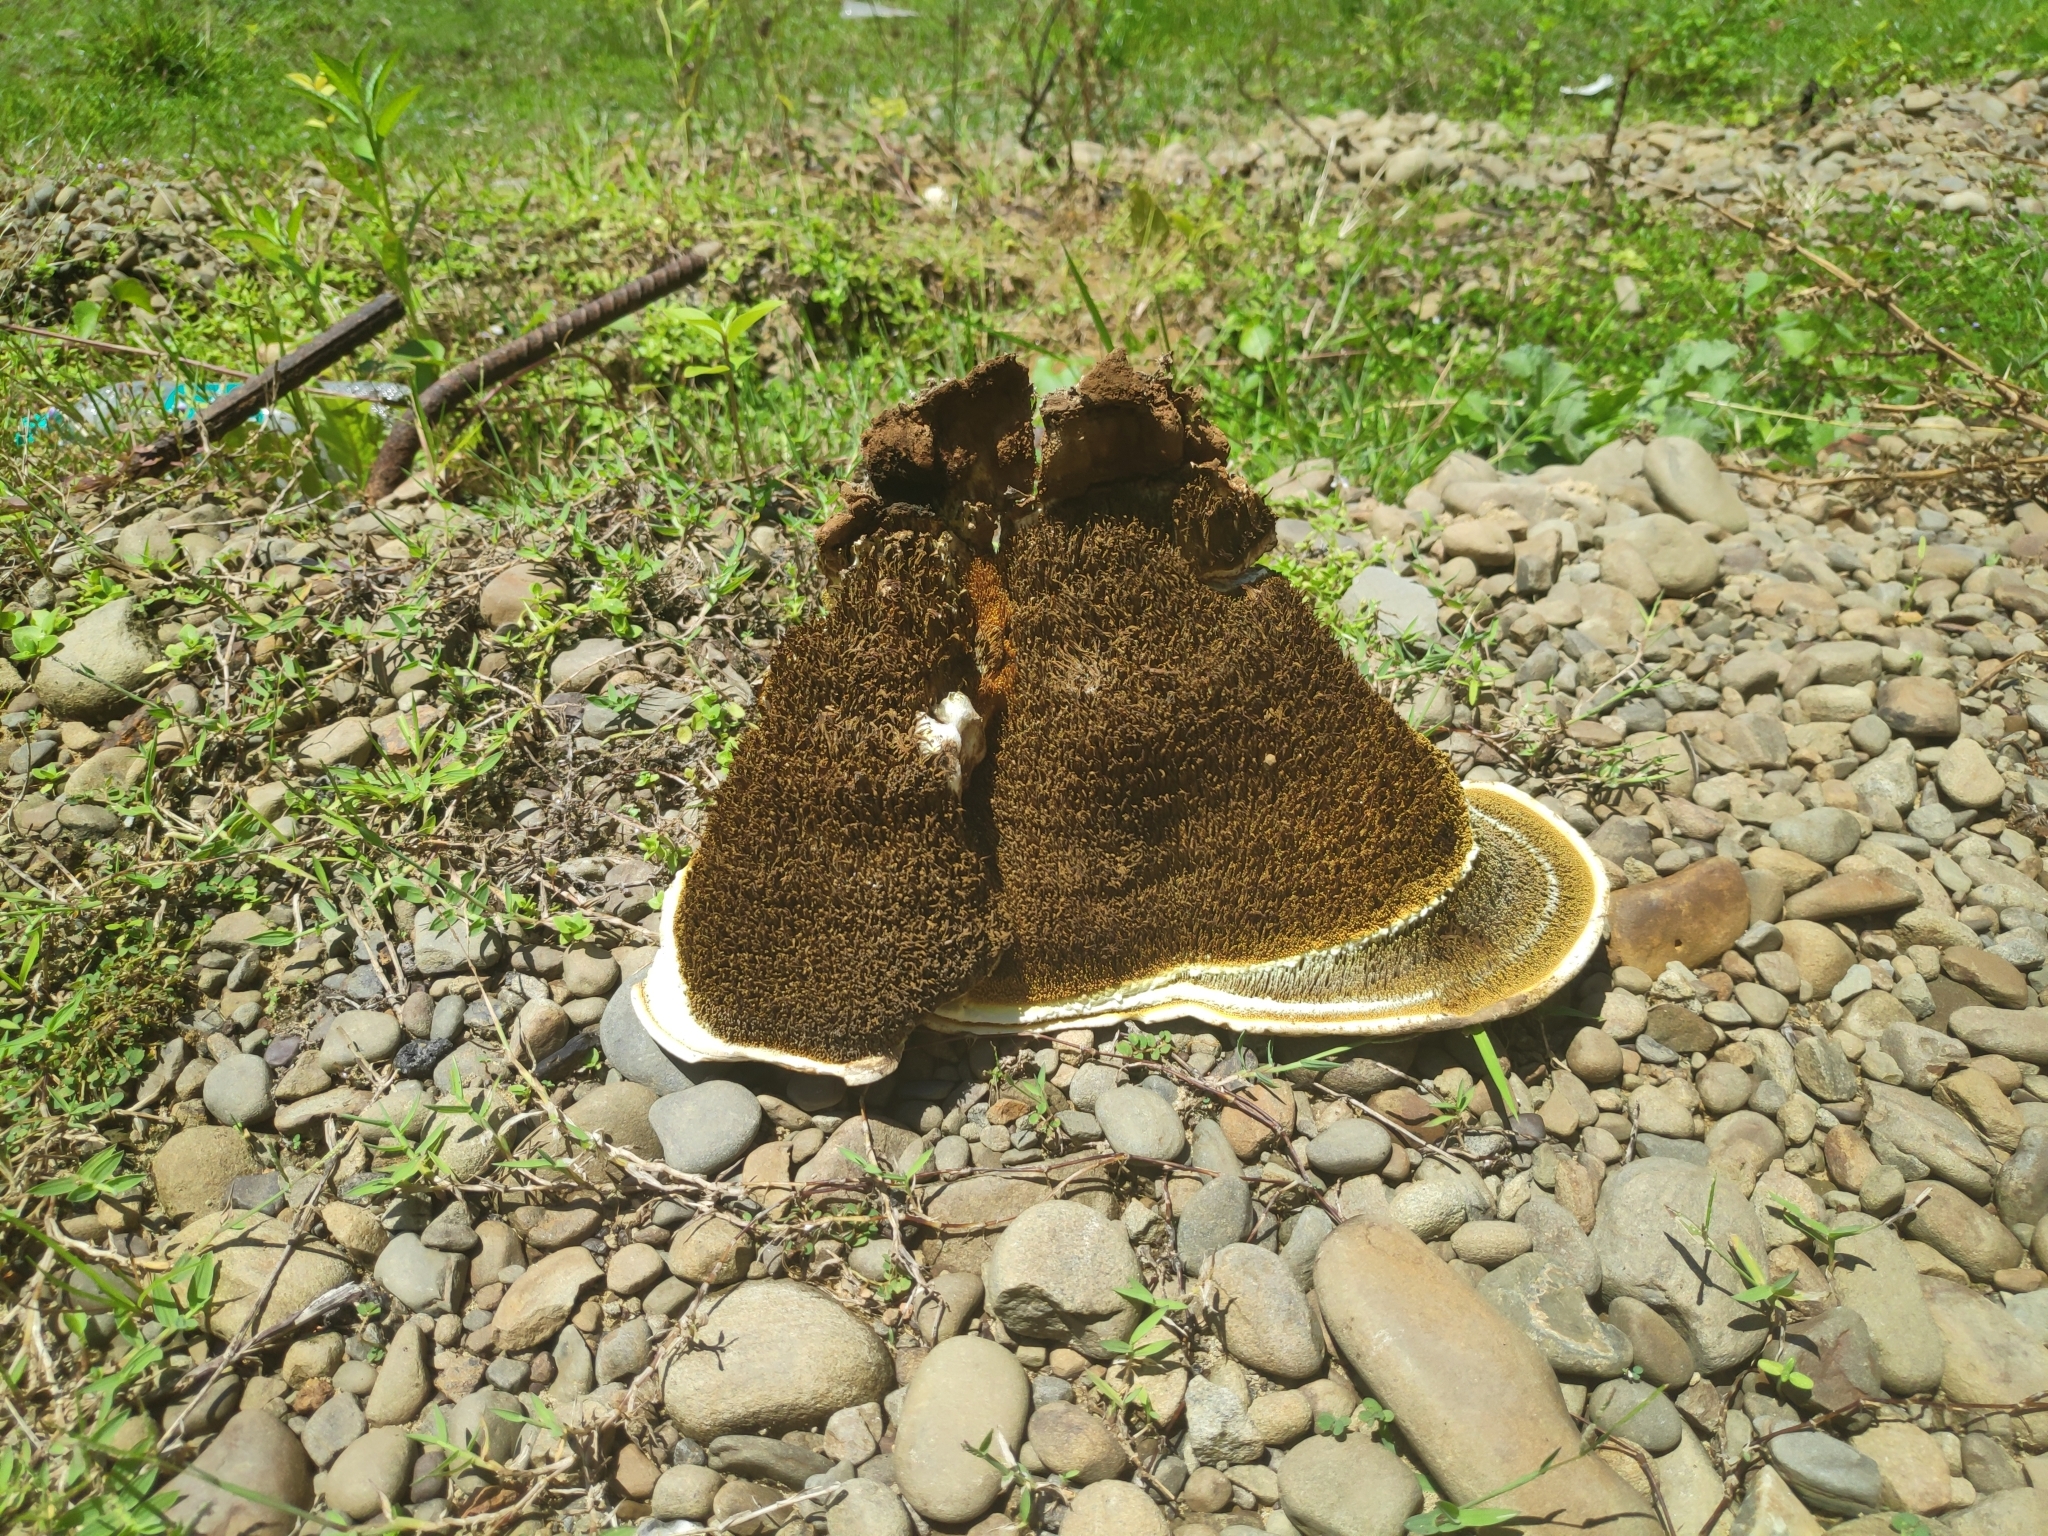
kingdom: Fungi
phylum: Basidiomycota
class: Agaricomycetes
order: Boletales
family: Coniophoraceae
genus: Gyrodontium
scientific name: Gyrodontium sacchari
